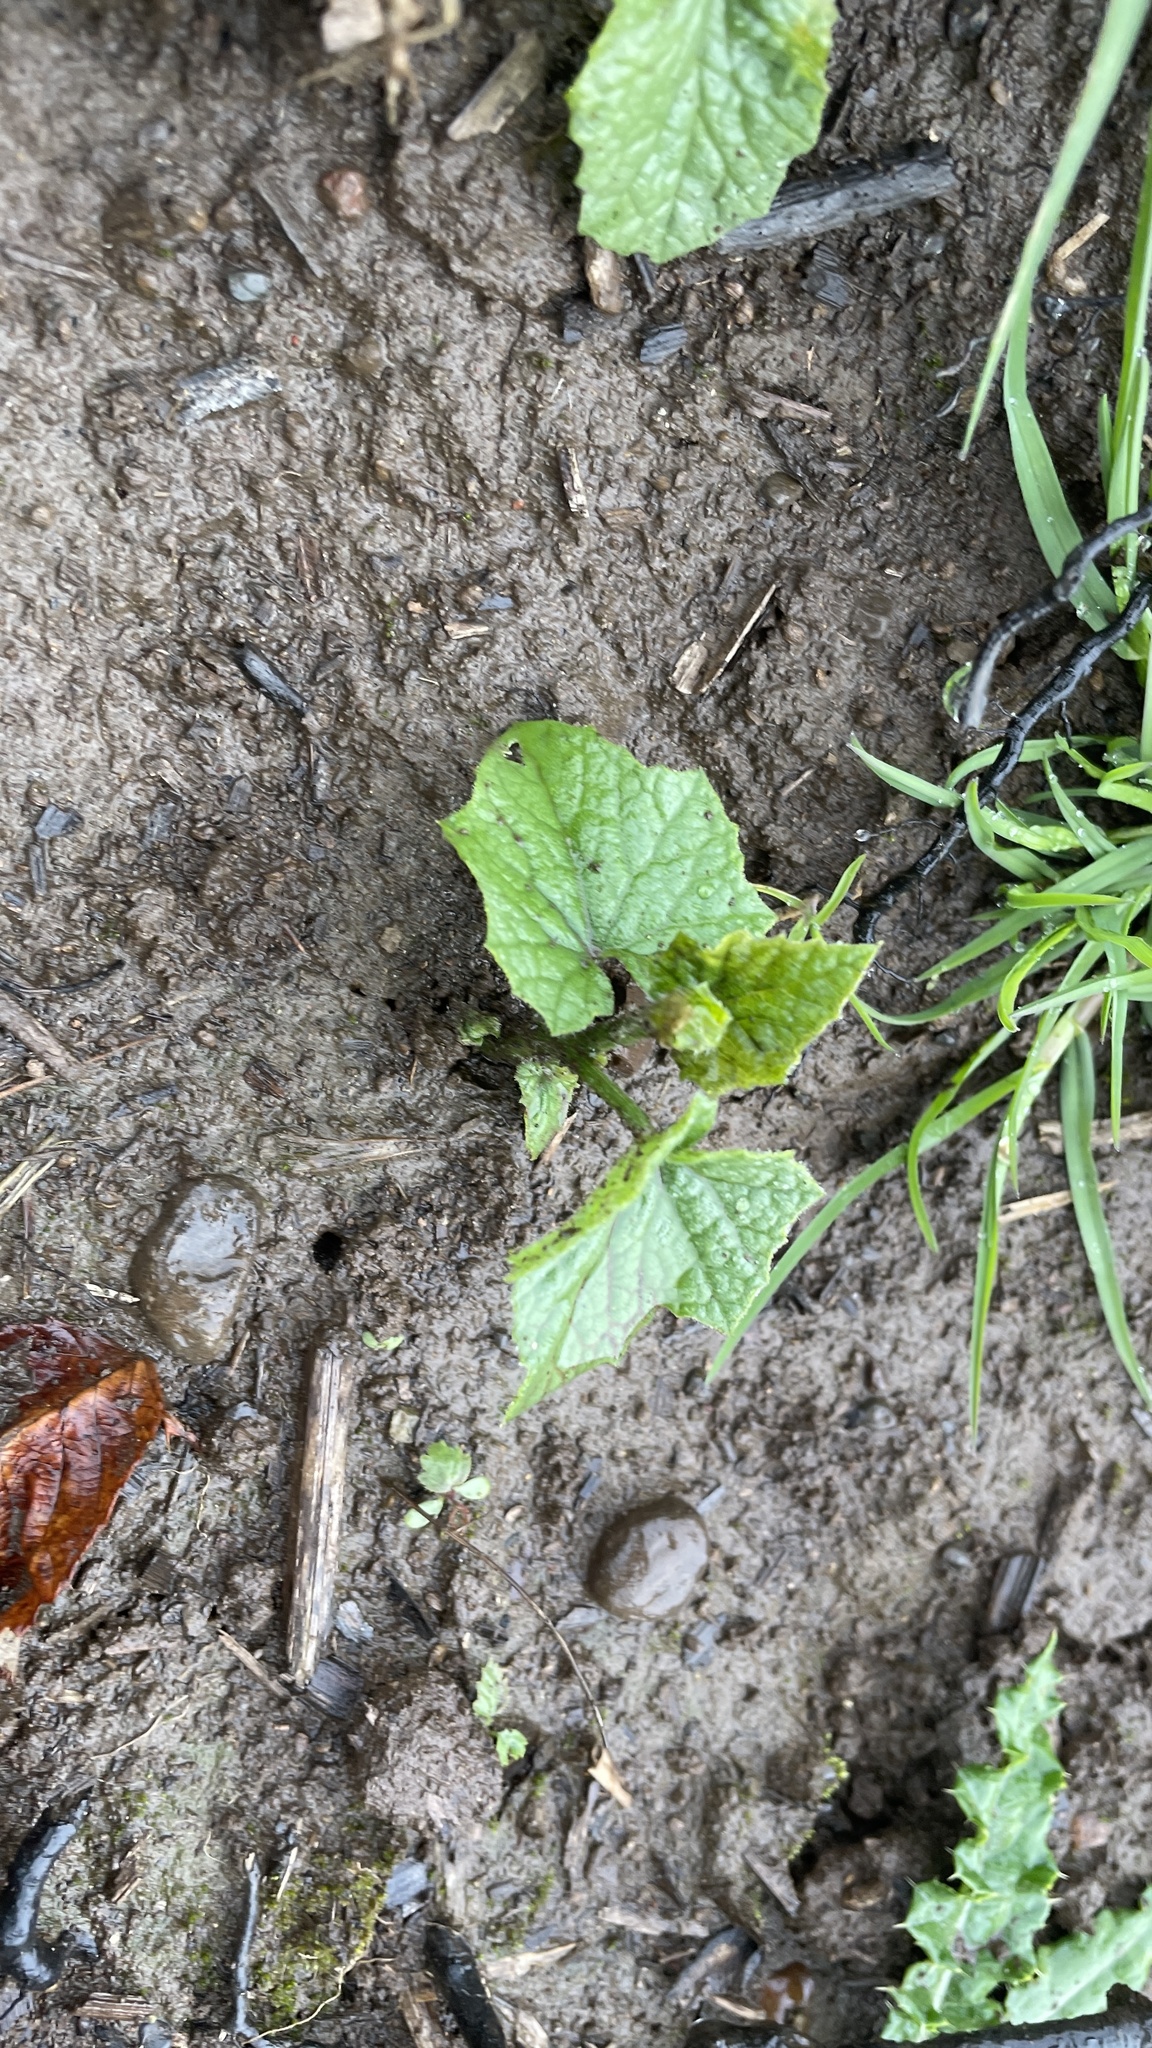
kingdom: Plantae
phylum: Tracheophyta
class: Magnoliopsida
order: Cucurbitales
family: Cucurbitaceae
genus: Marah
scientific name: Marah oregana
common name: Coastal manroot
